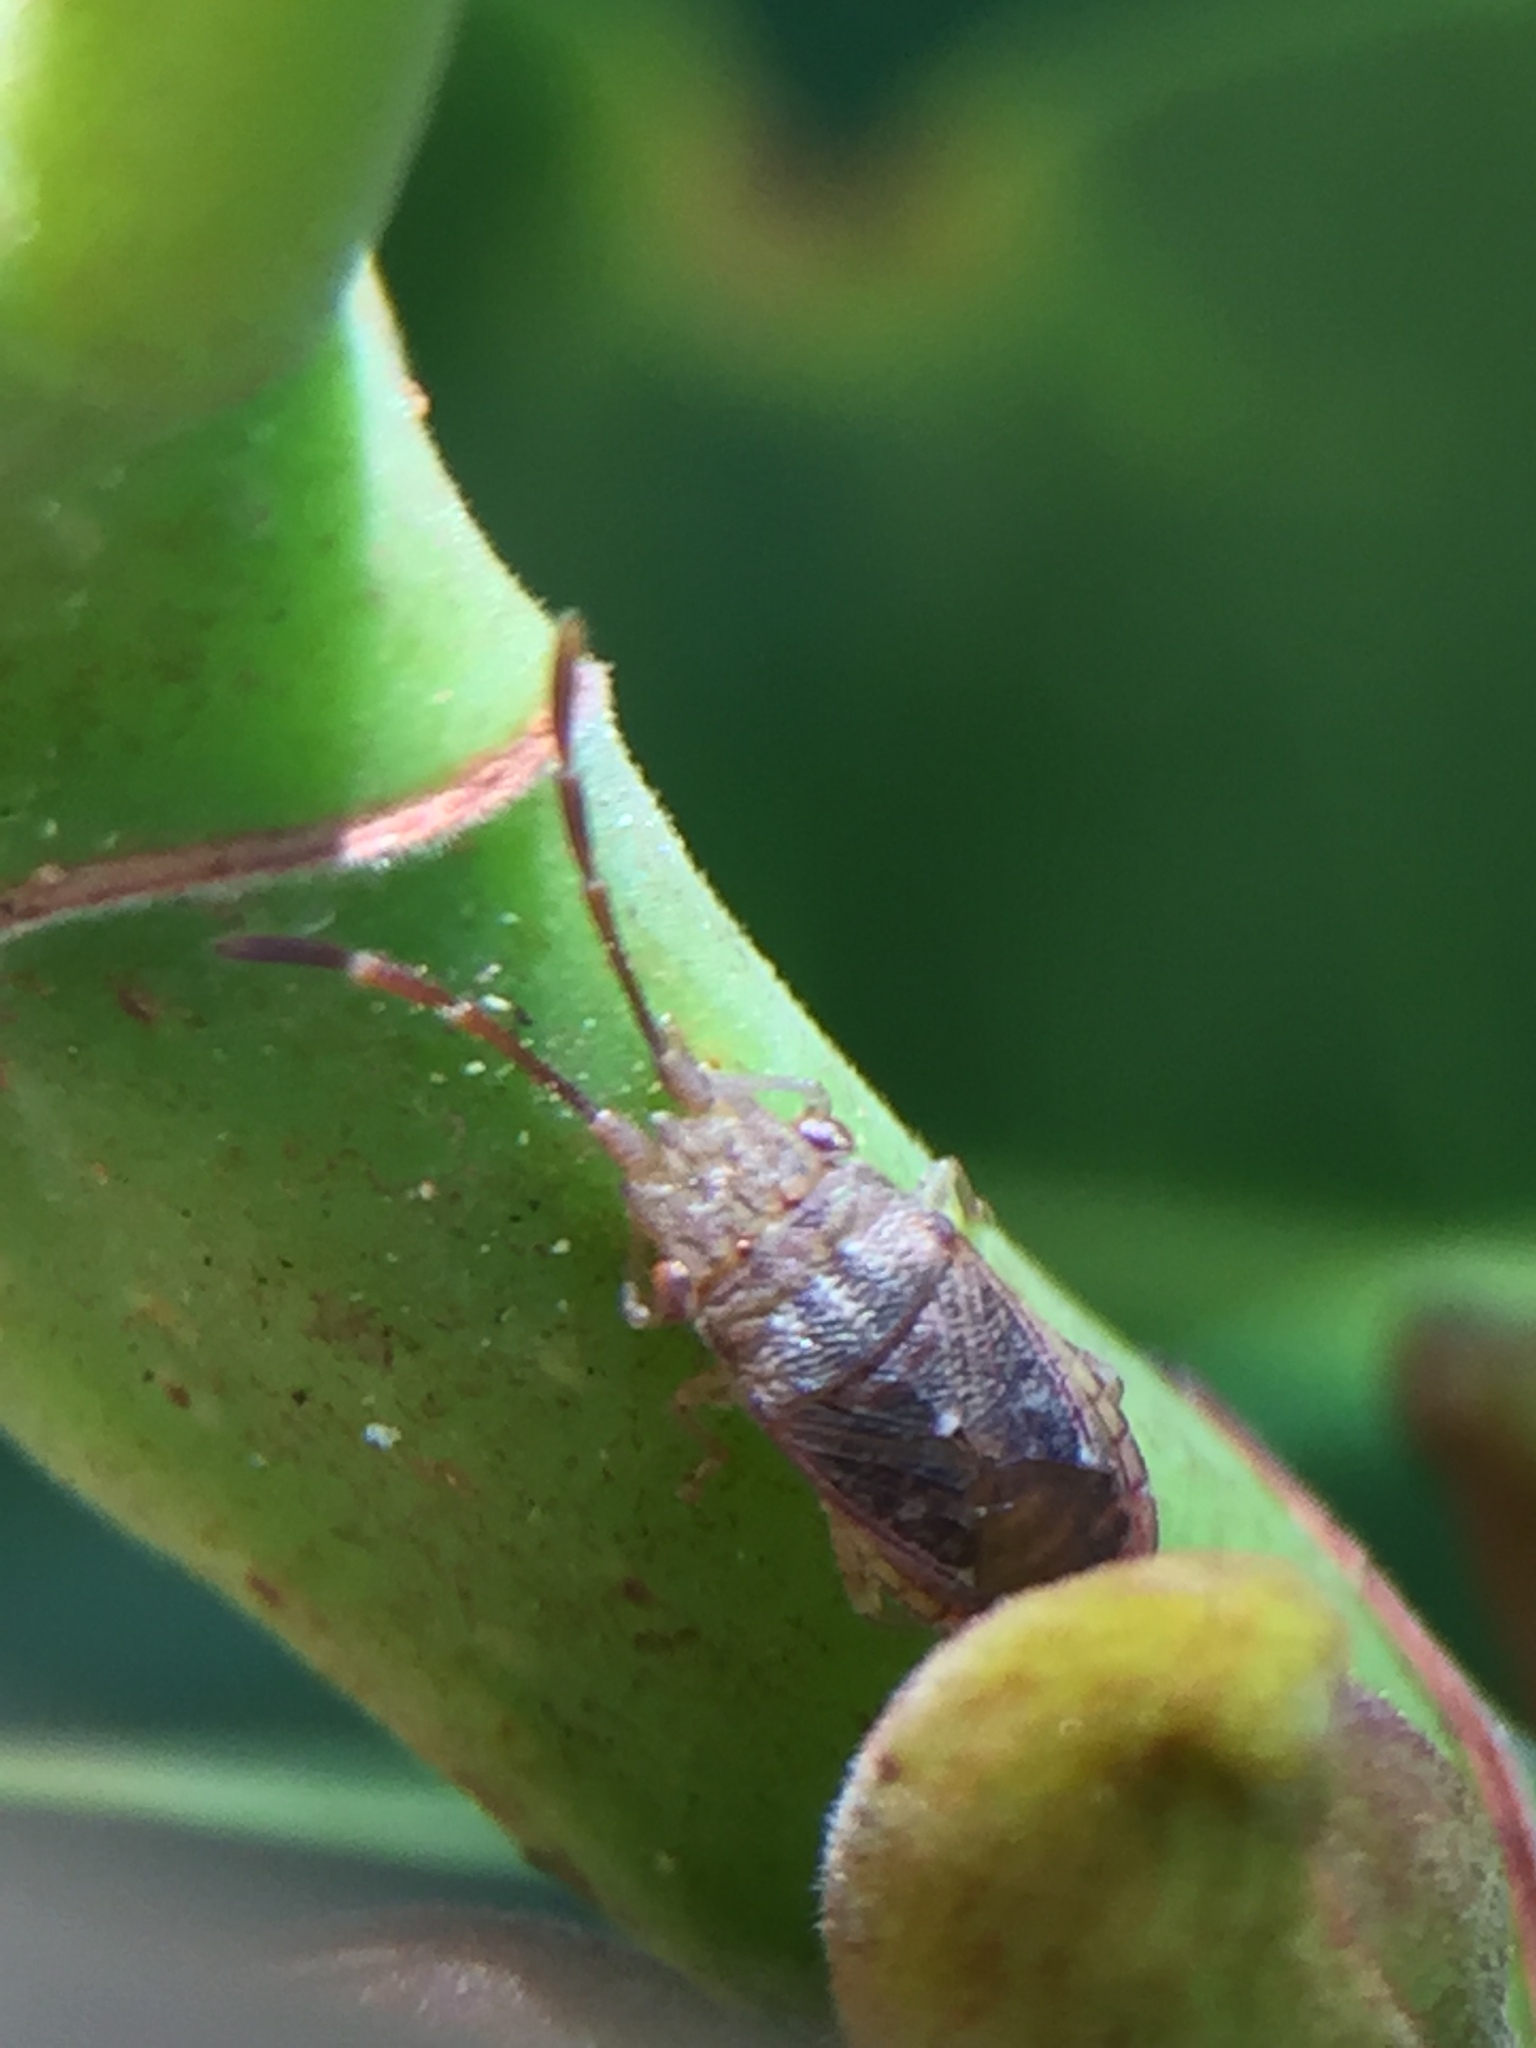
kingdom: Animalia
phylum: Arthropoda
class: Insecta
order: Hemiptera
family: Meschiidae
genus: Meschia
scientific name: Meschia barrowensis
